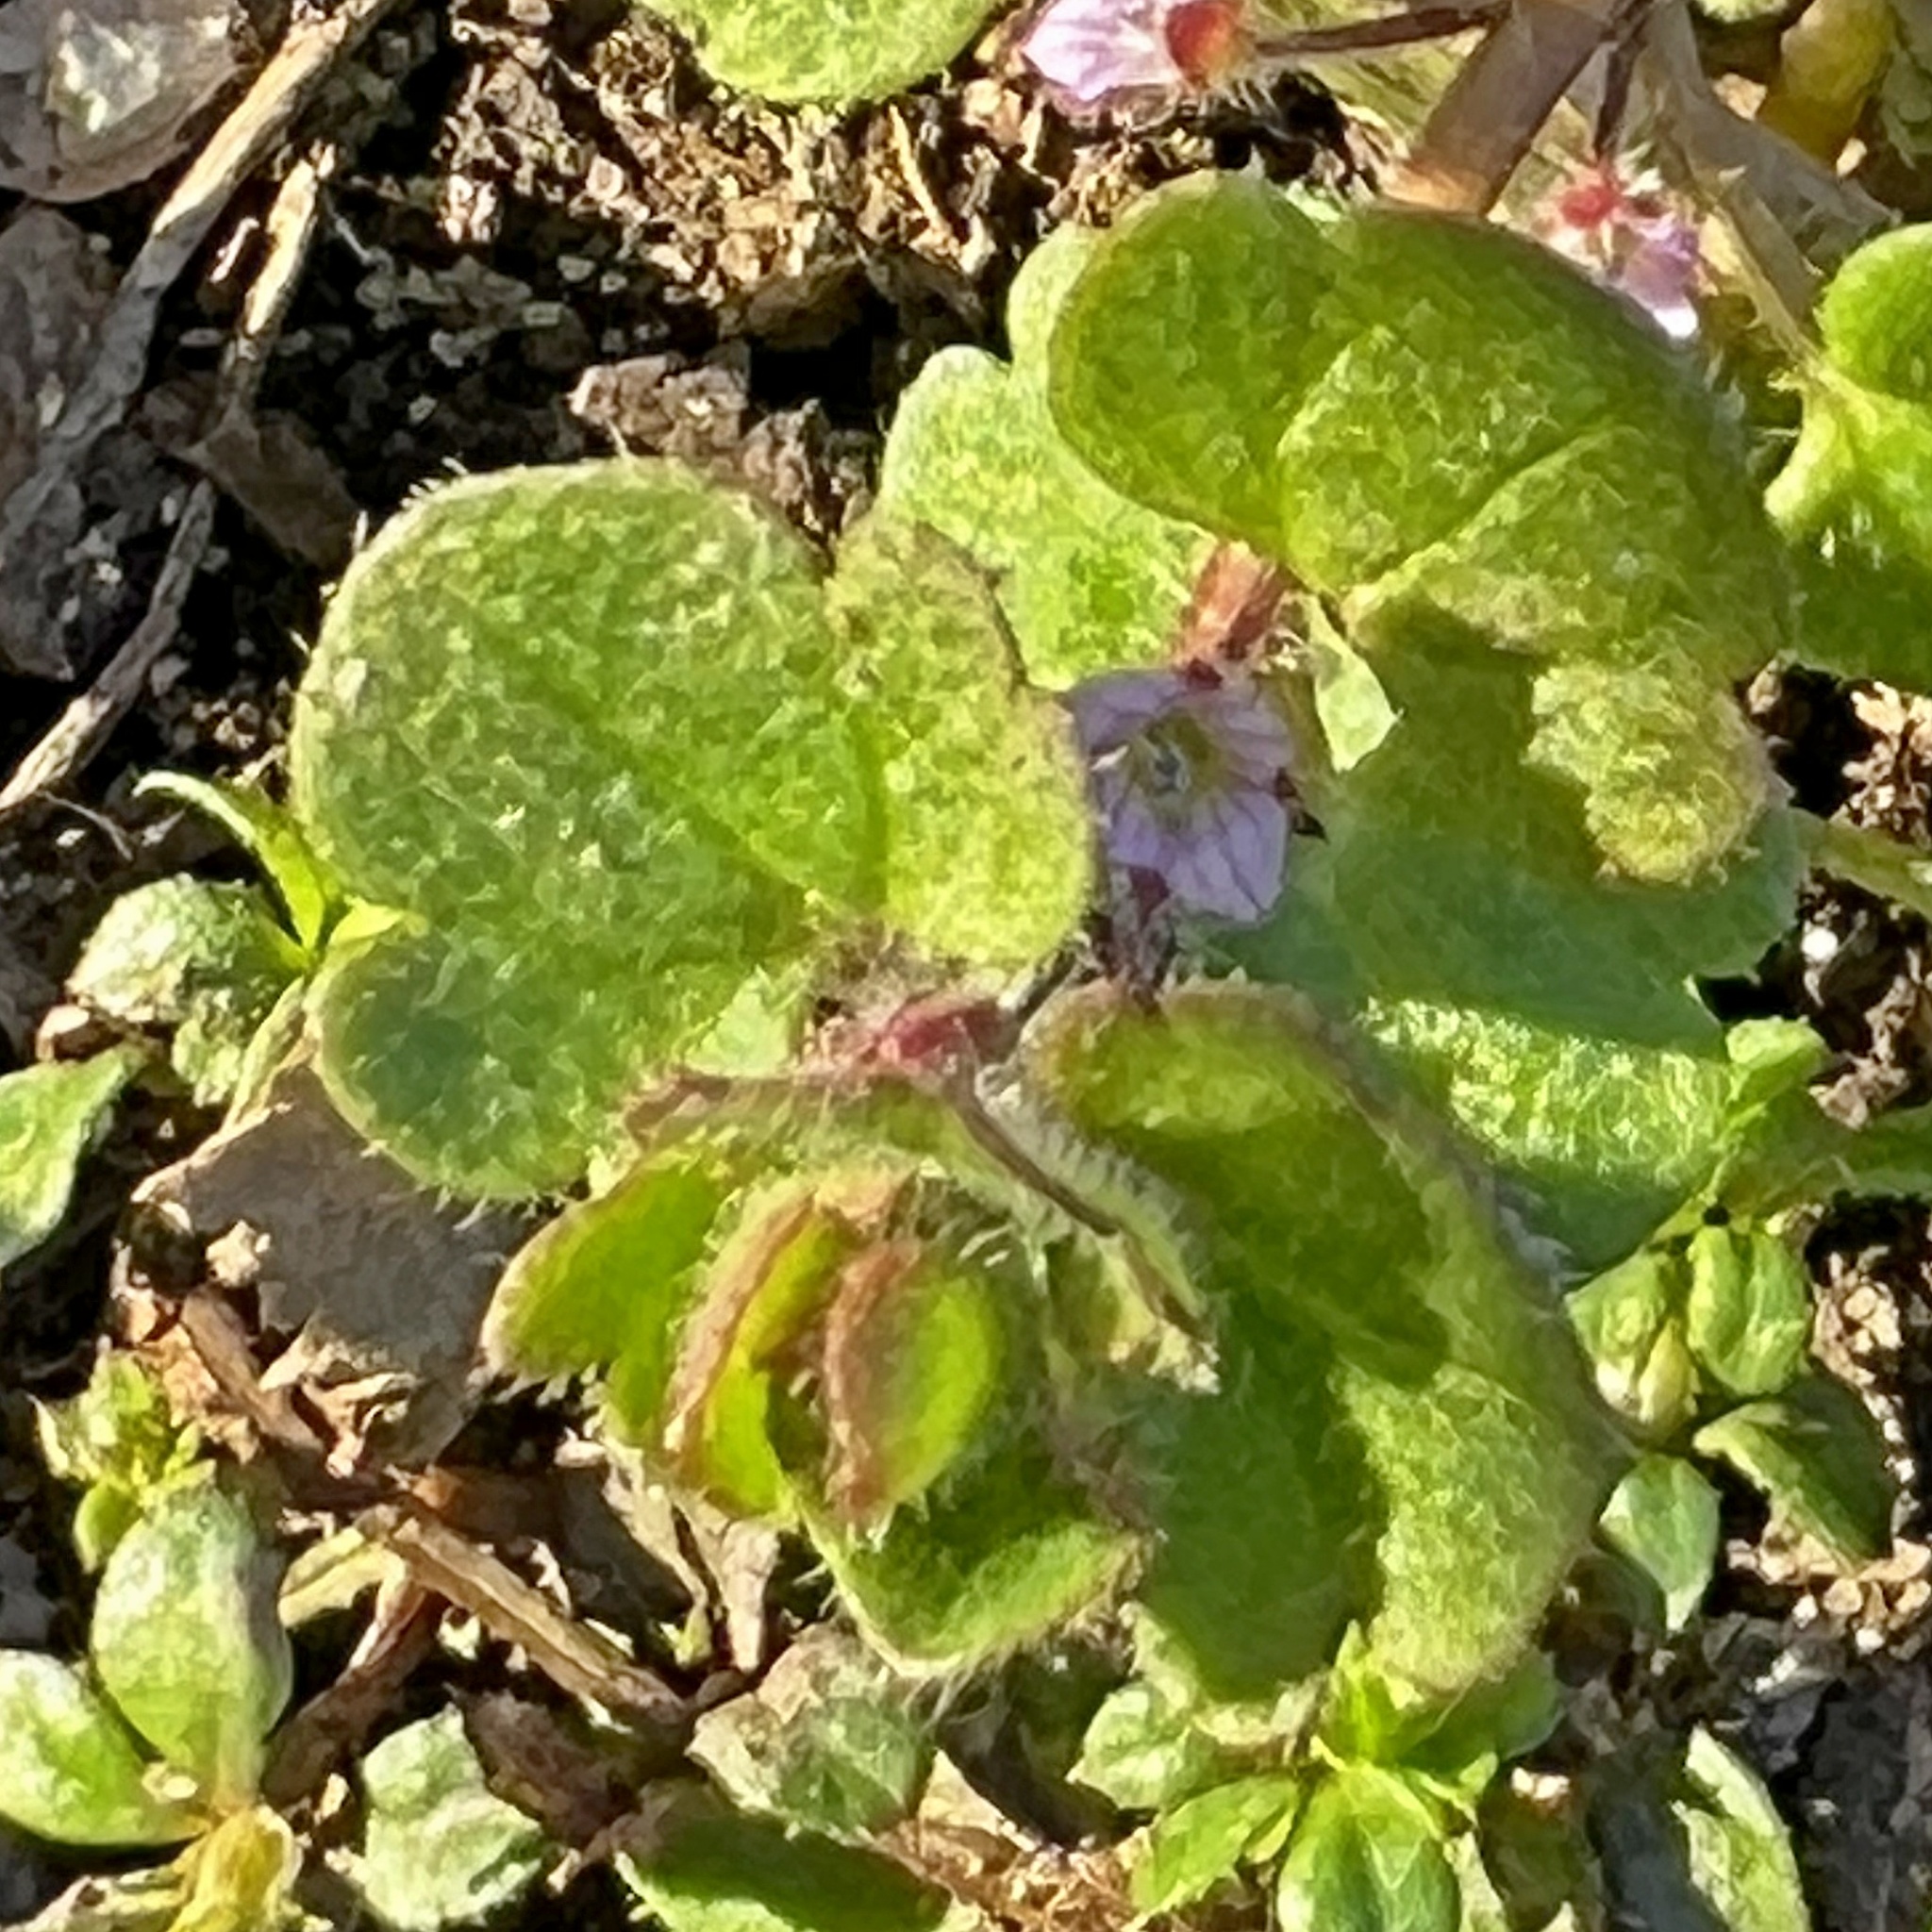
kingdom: Plantae
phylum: Tracheophyta
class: Magnoliopsida
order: Lamiales
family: Plantaginaceae
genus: Veronica
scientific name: Veronica sublobata
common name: False ivy-leaved speedwell
